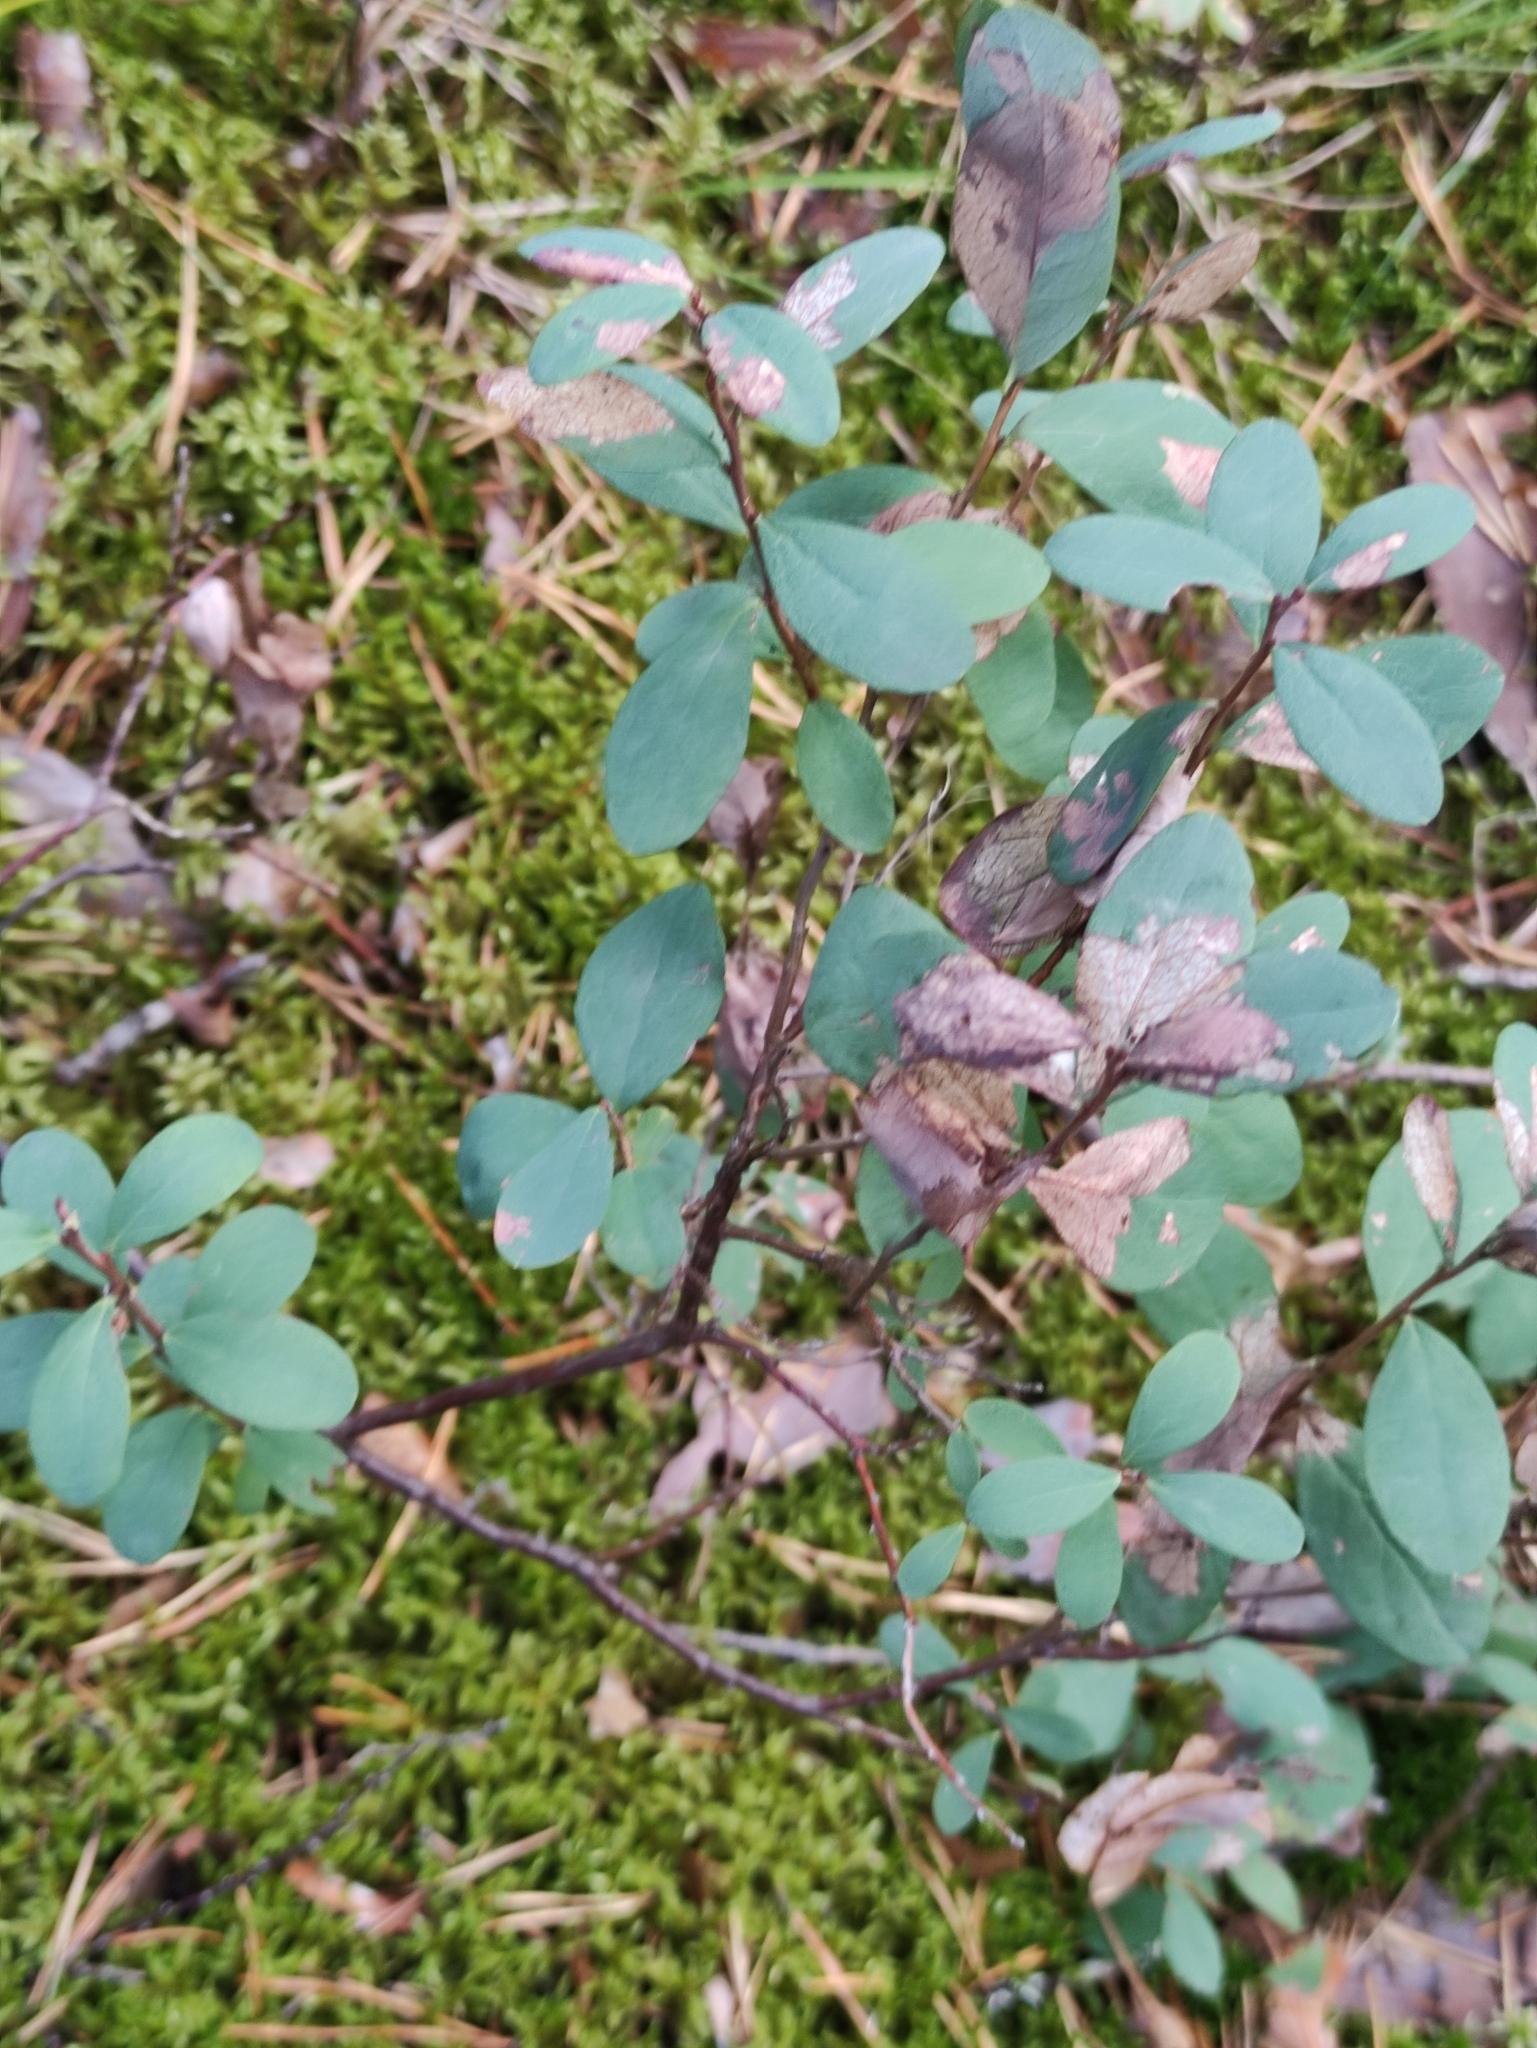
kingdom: Plantae
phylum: Tracheophyta
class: Magnoliopsida
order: Ericales
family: Ericaceae
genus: Vaccinium
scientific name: Vaccinium uliginosum
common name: Bog bilberry
